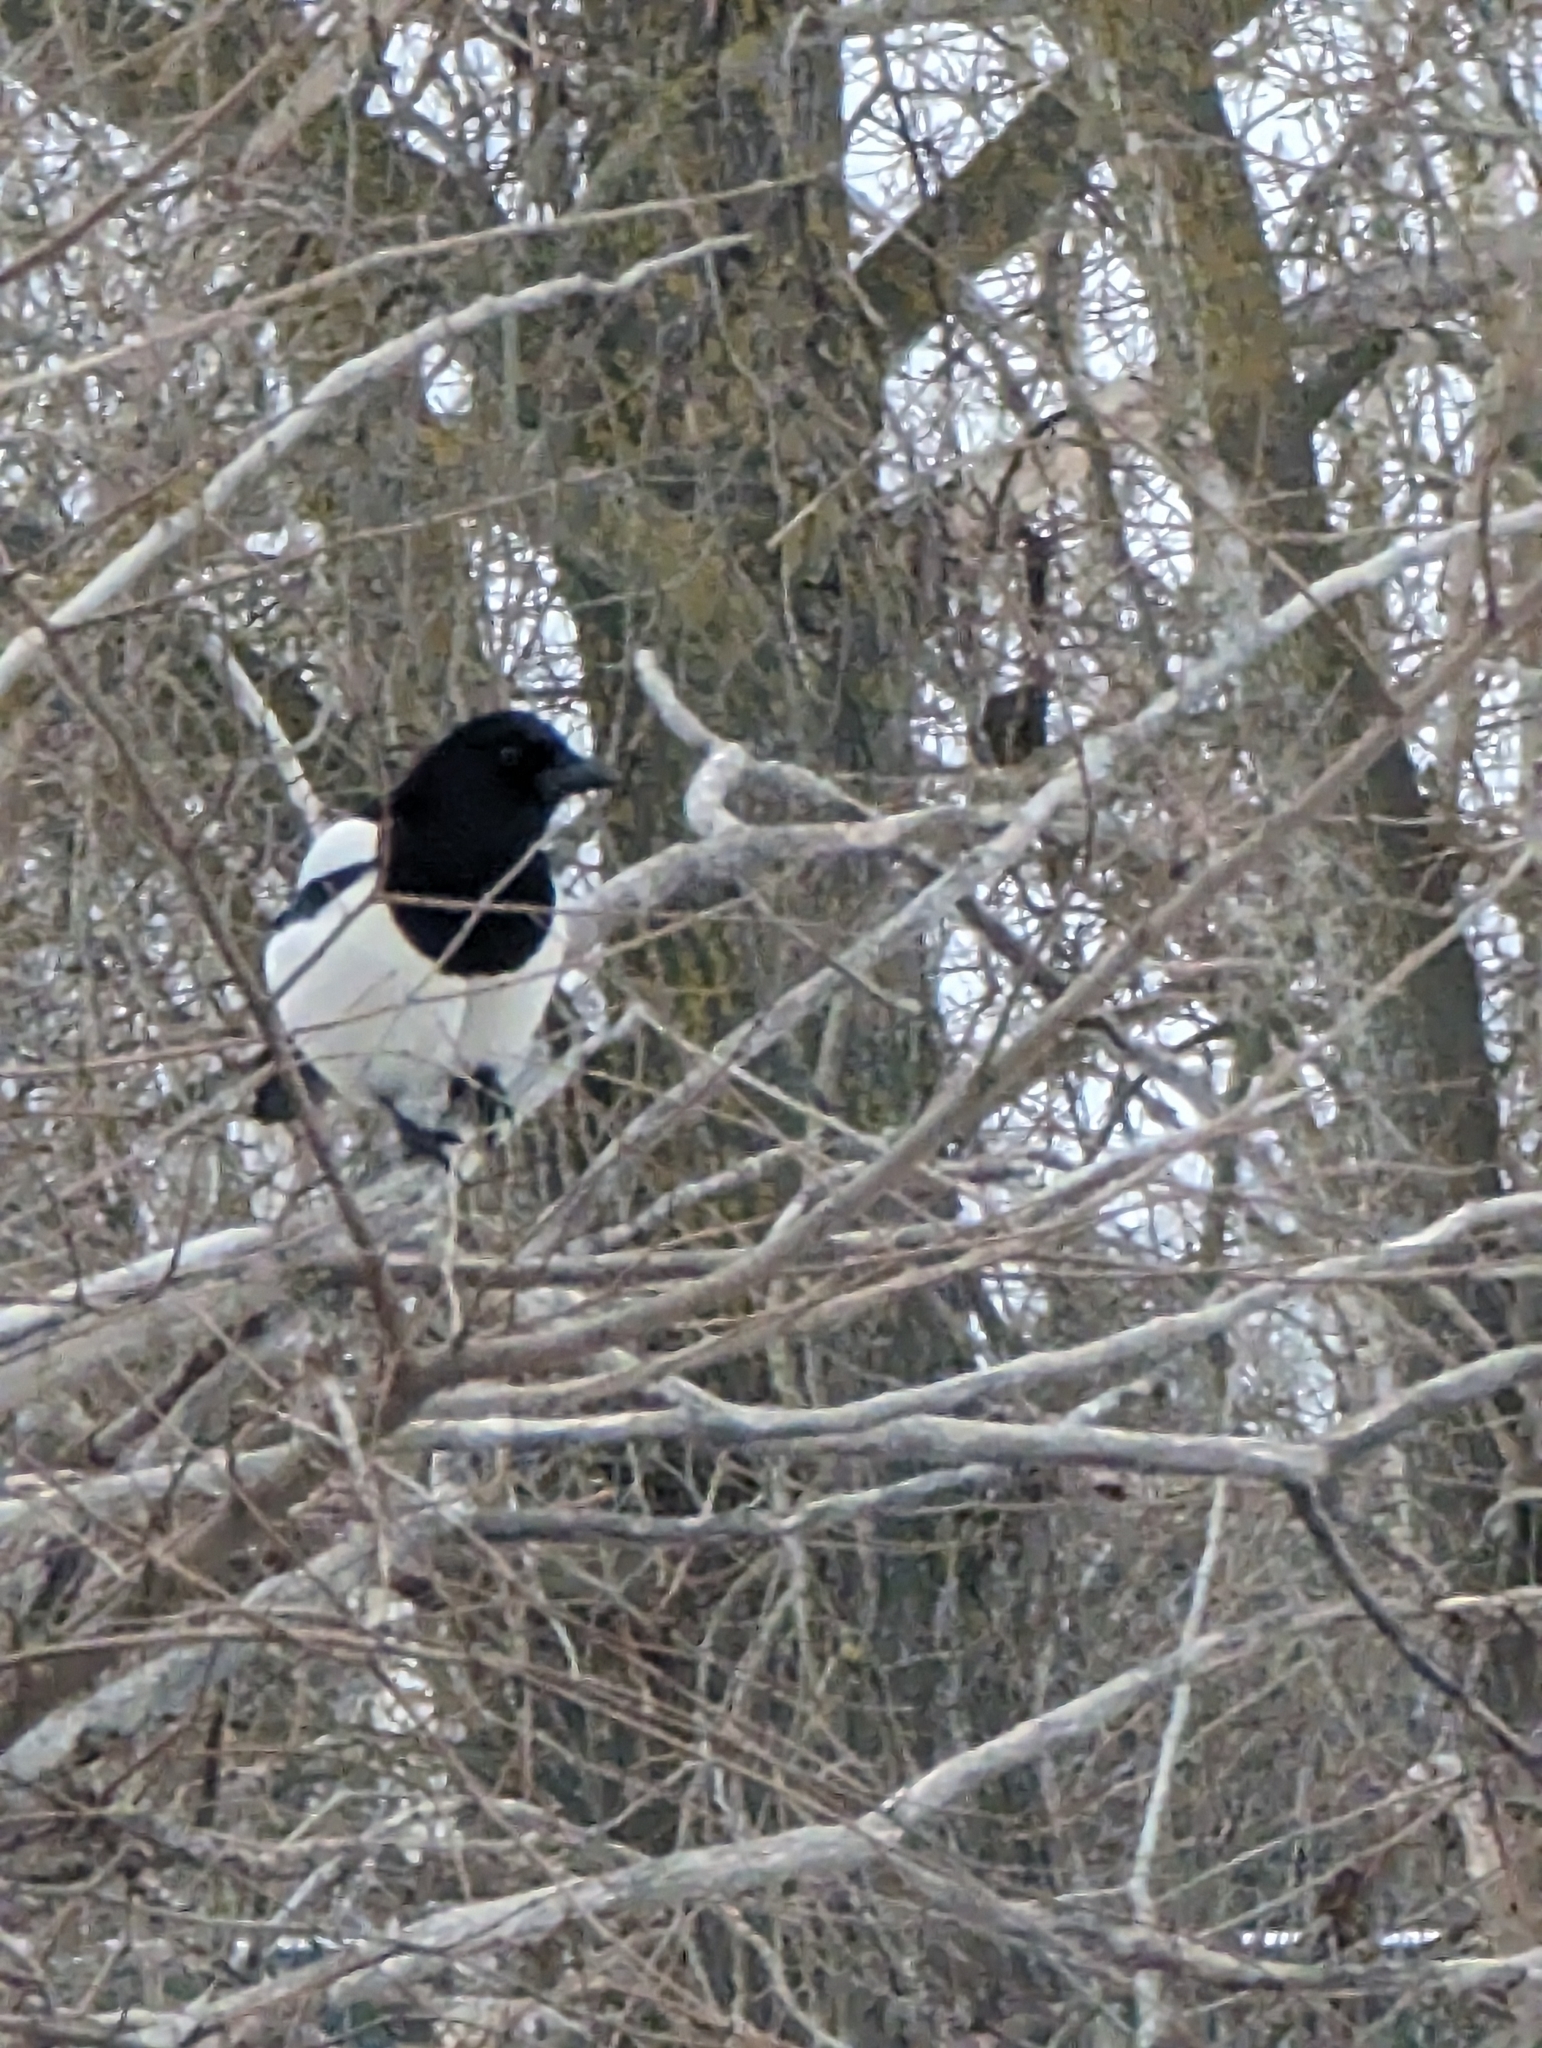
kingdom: Animalia
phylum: Chordata
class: Aves
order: Passeriformes
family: Corvidae
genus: Pica
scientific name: Pica pica
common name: Eurasian magpie
